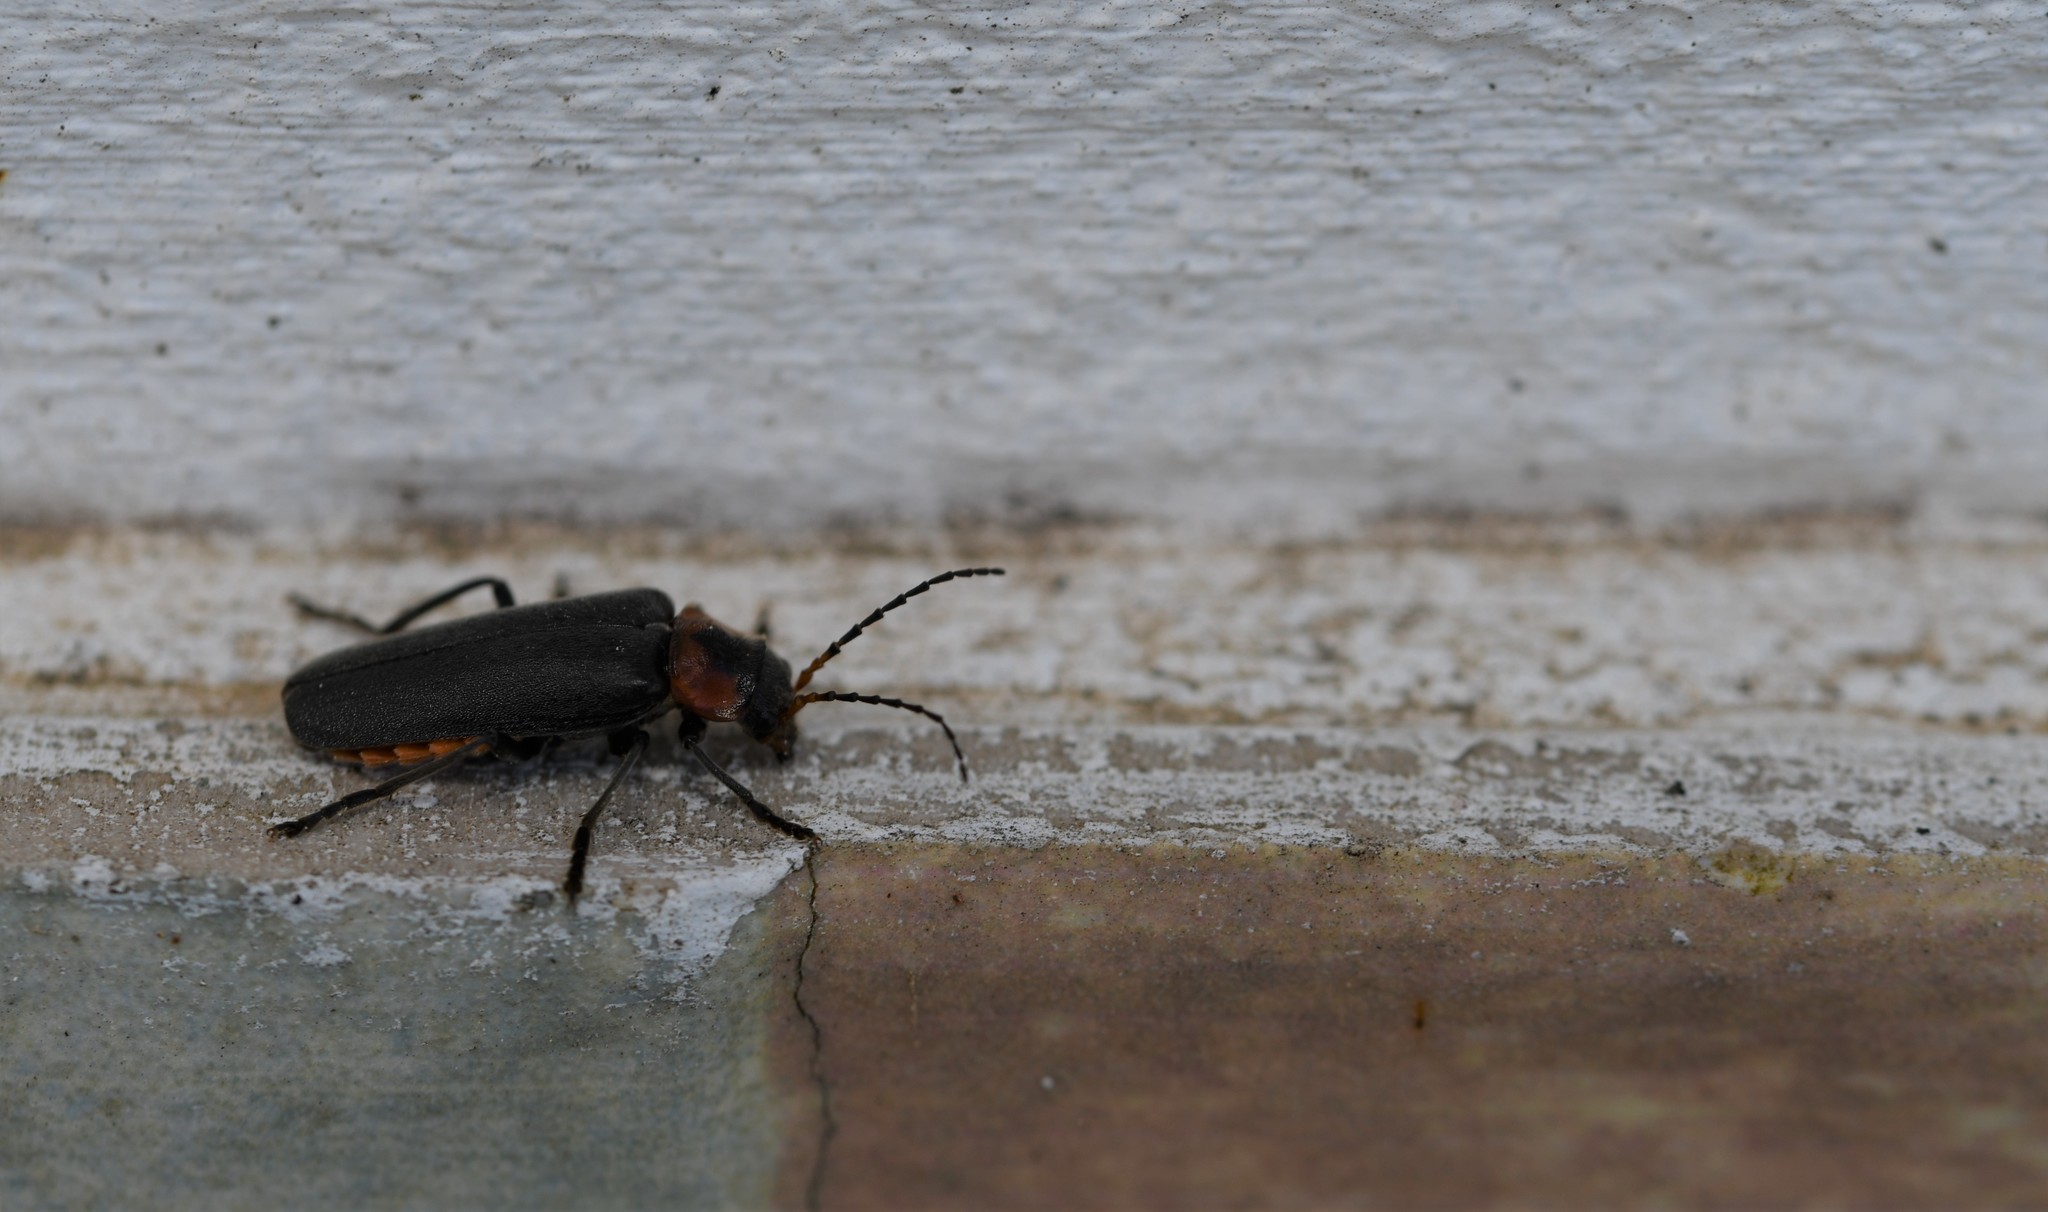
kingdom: Animalia
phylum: Arthropoda
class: Insecta
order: Coleoptera
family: Cantharidae
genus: Cantharis
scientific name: Cantharis reichei
